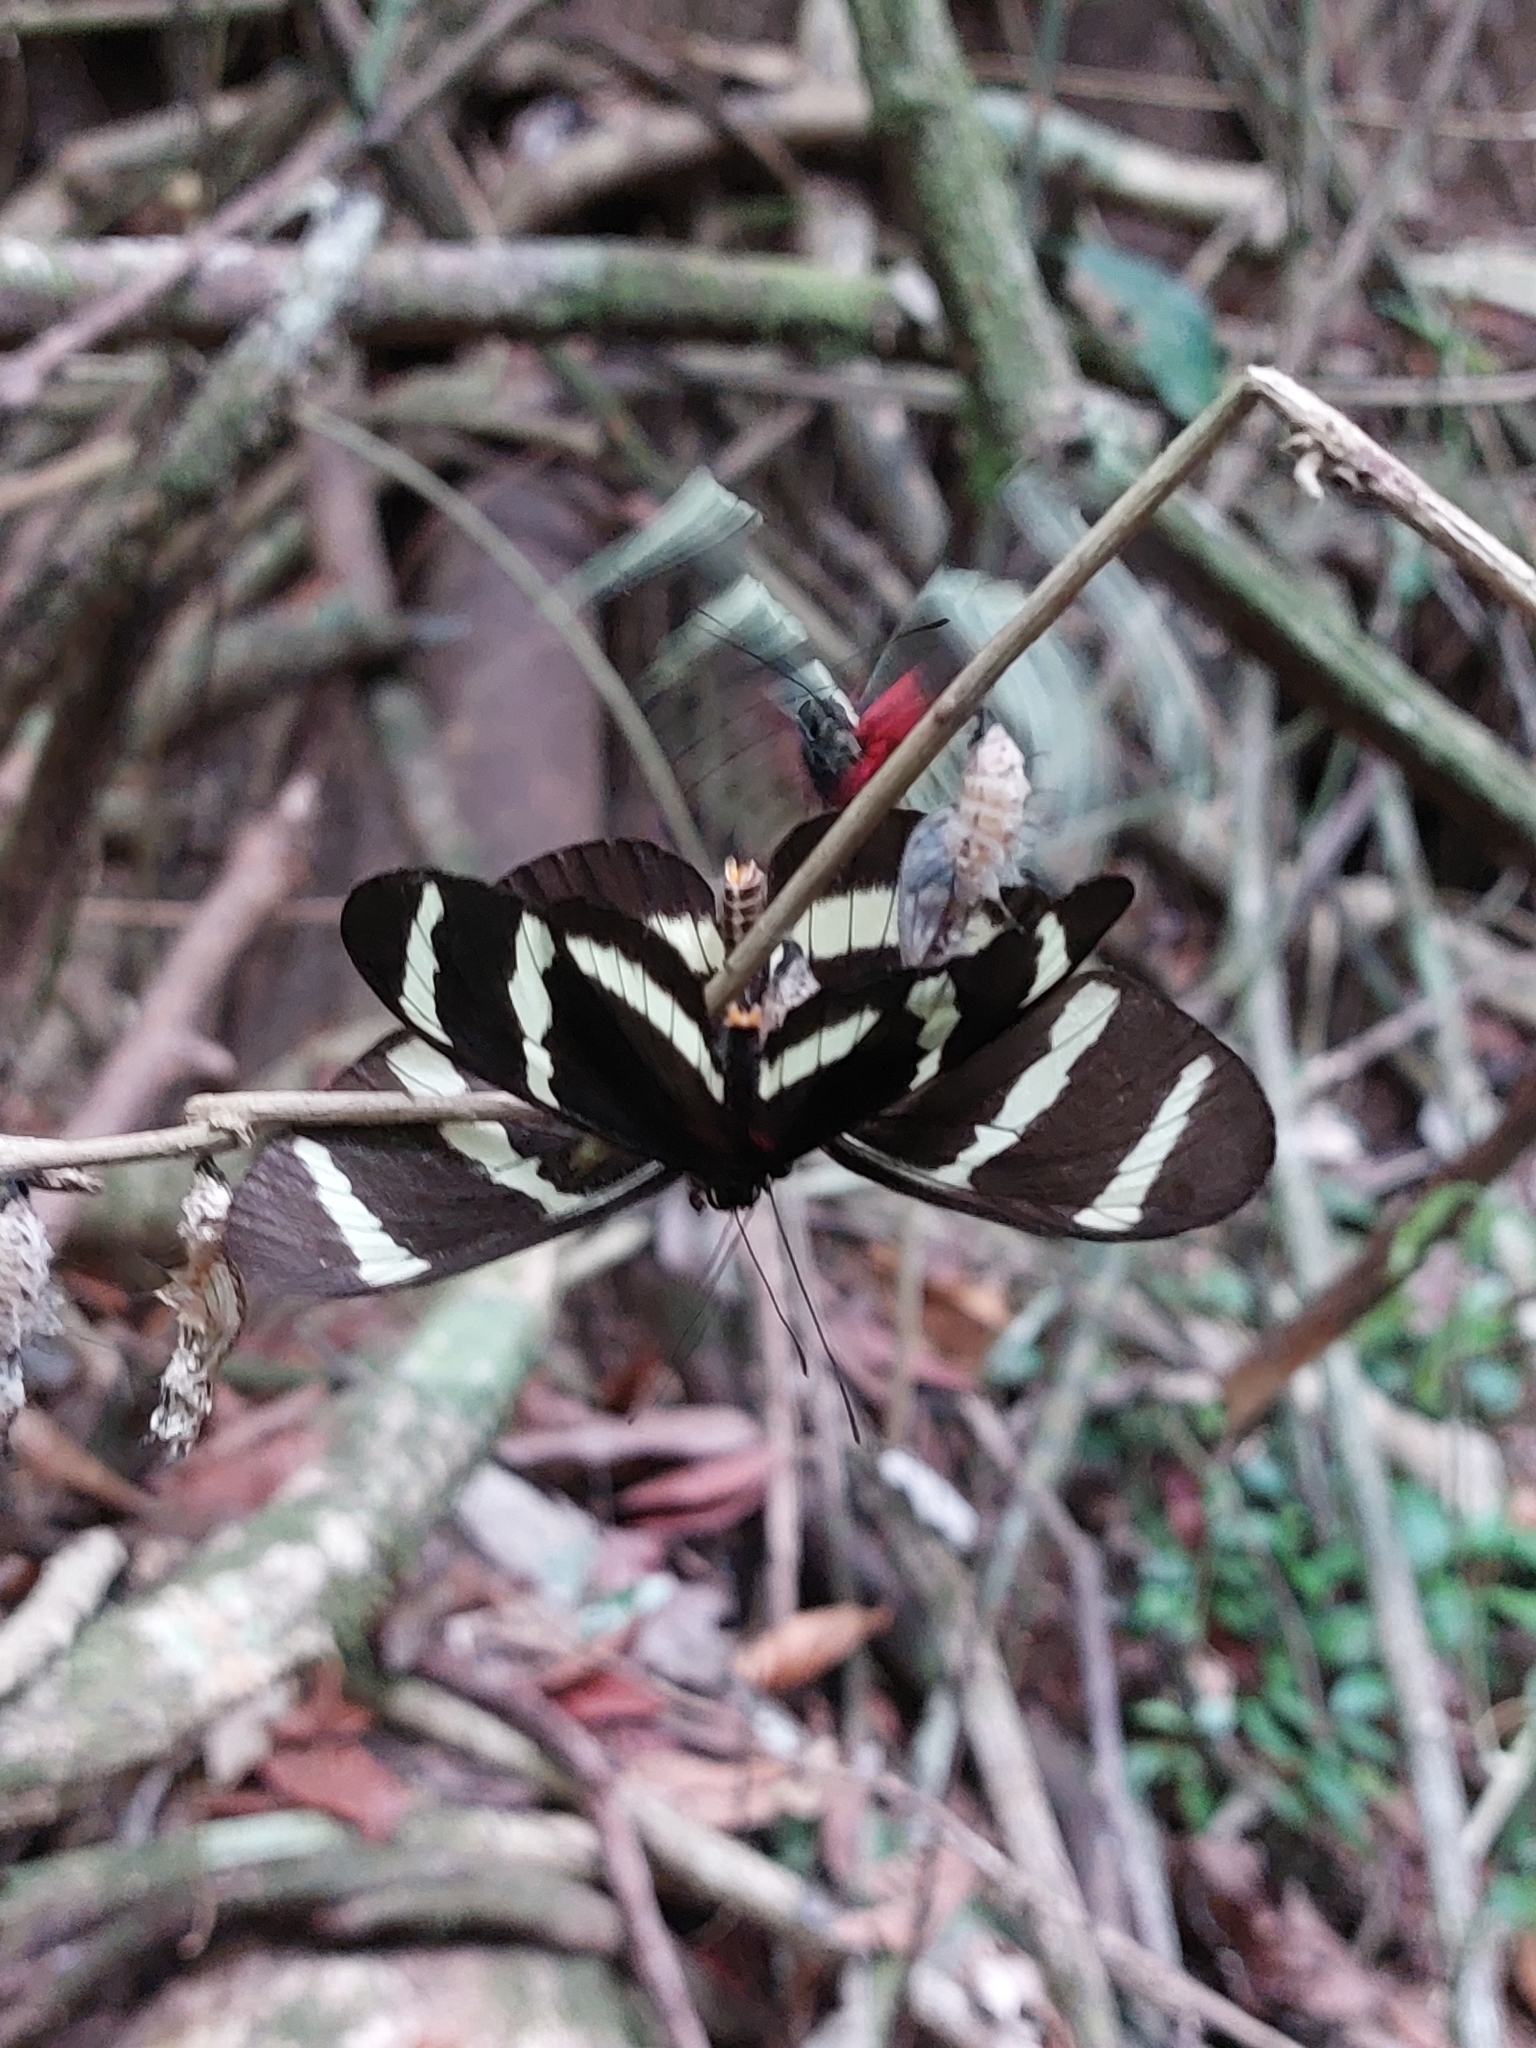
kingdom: Animalia
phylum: Arthropoda
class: Insecta
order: Lepidoptera
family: Nymphalidae
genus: Heliconius
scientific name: Heliconius hewitsoni
